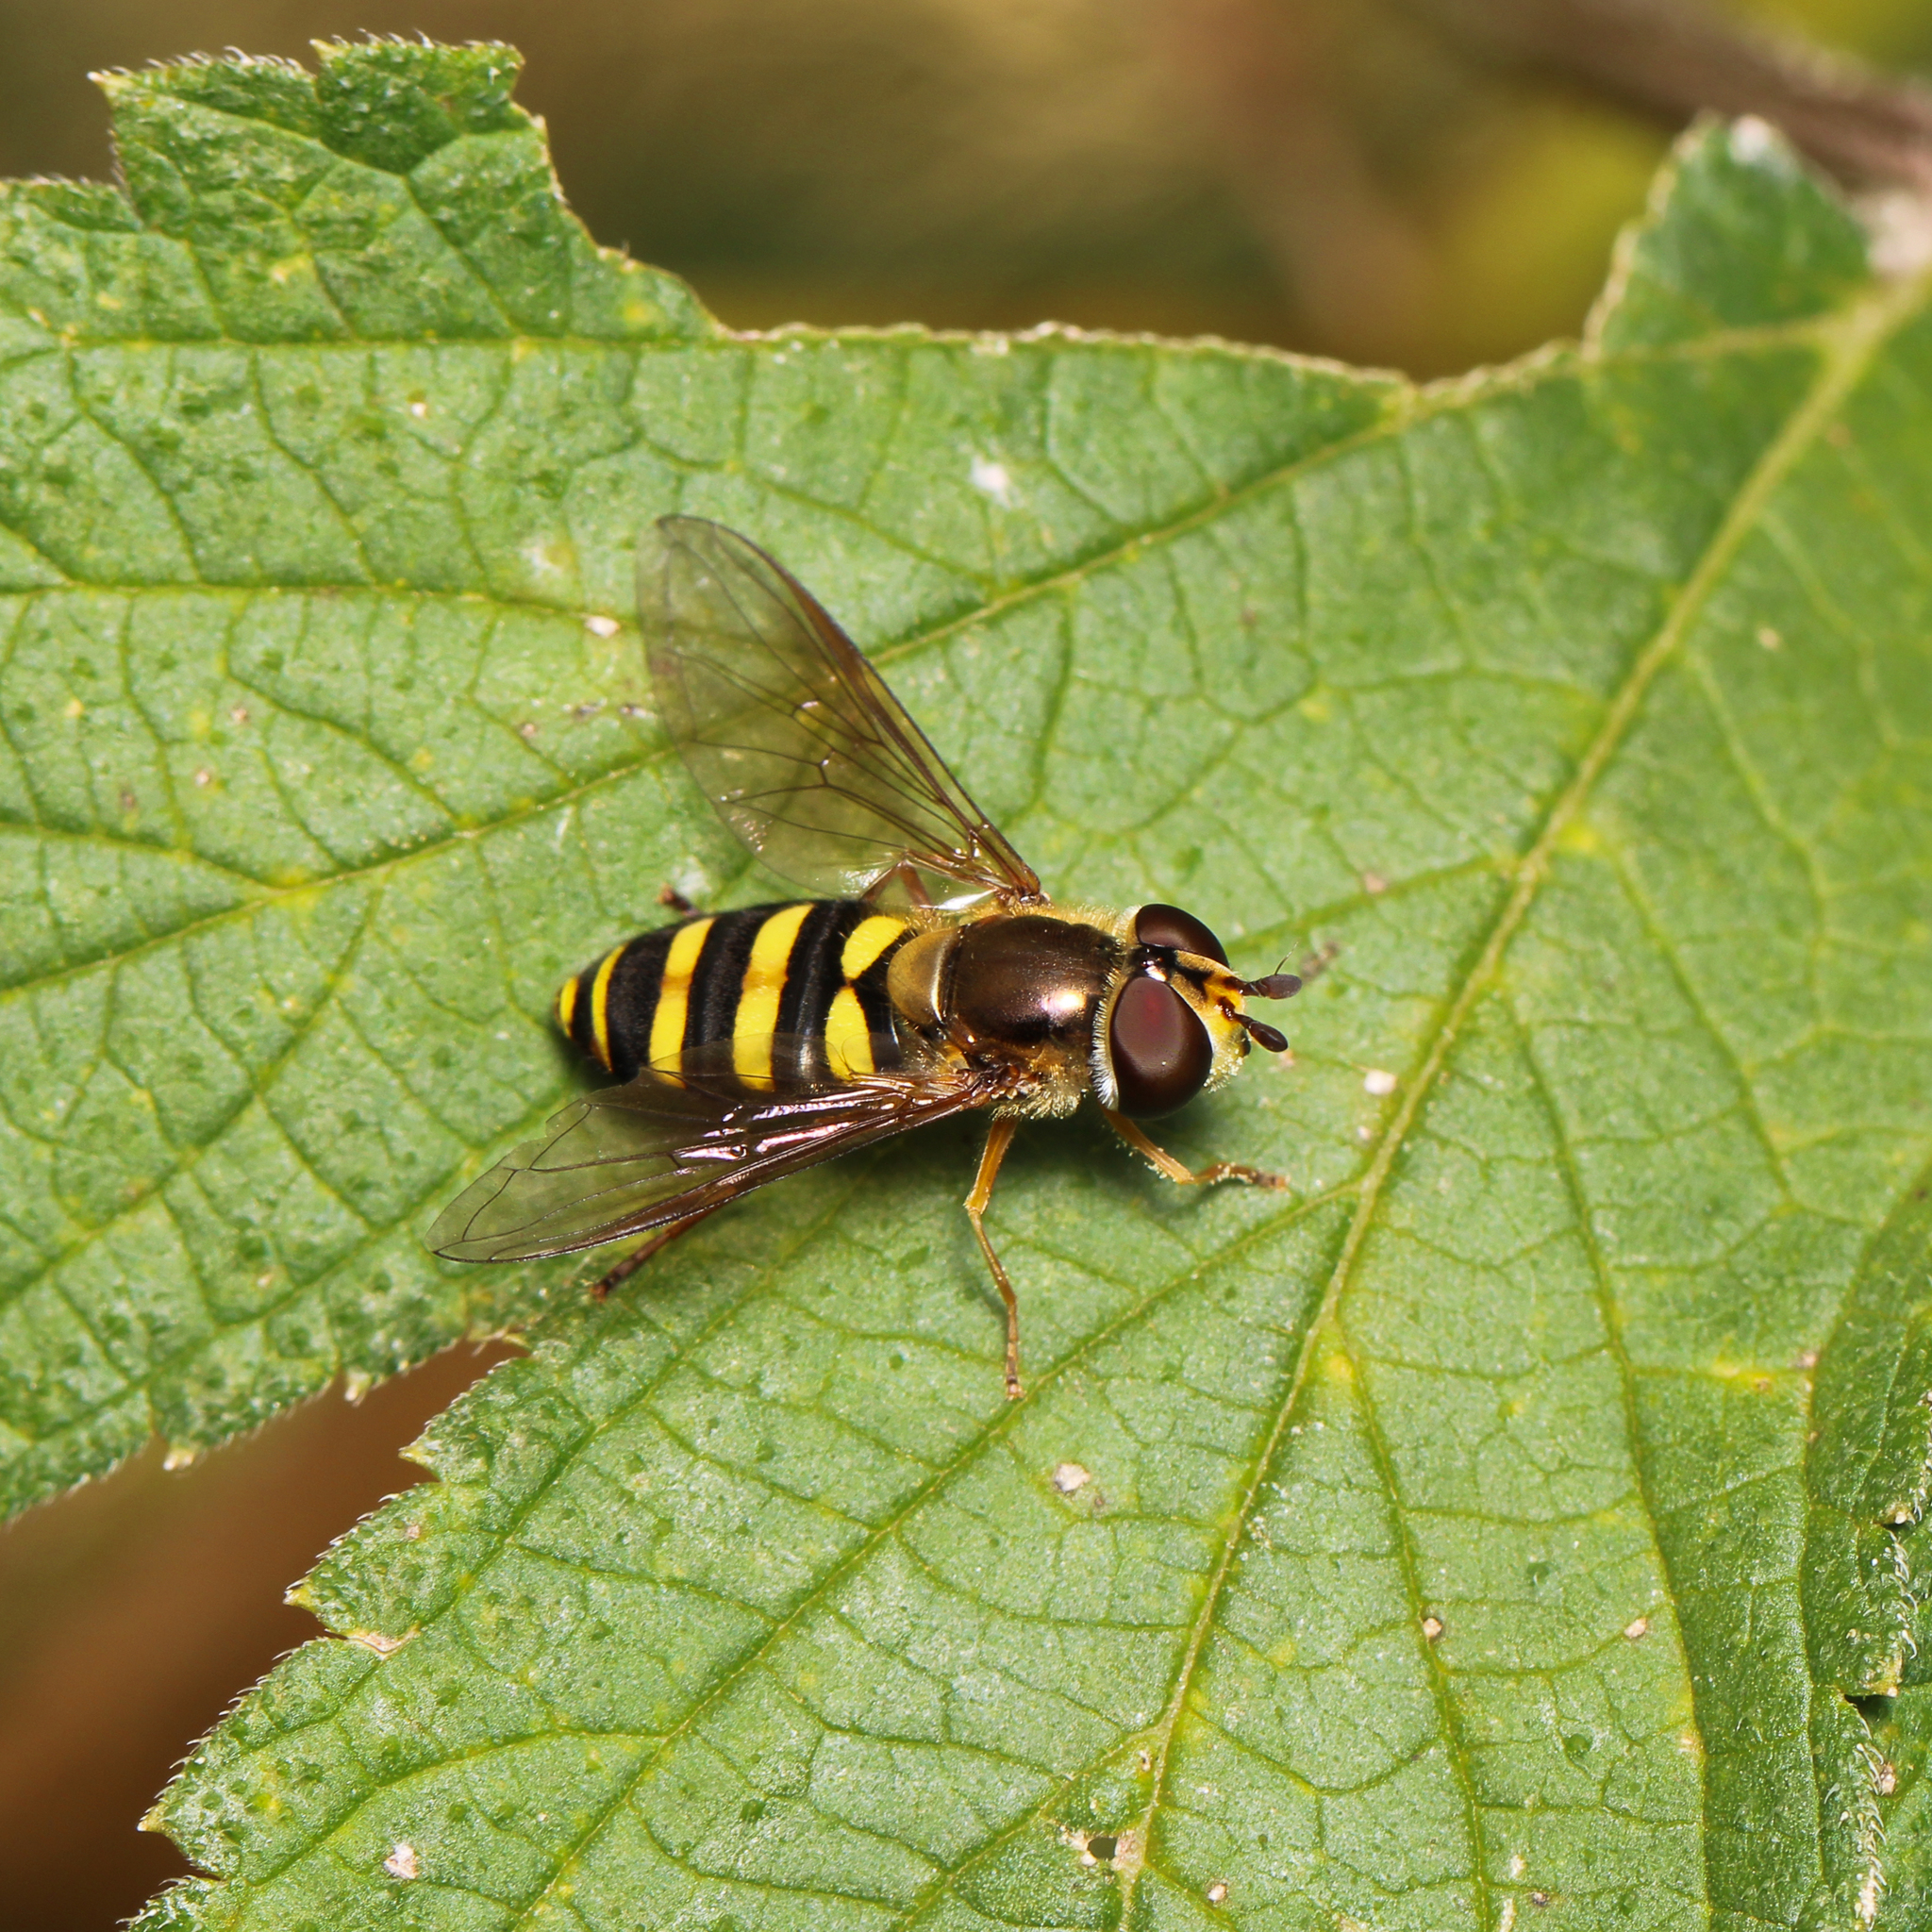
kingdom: Animalia
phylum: Arthropoda
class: Insecta
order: Diptera
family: Syrphidae
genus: Eupeodes
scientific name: Eupeodes
